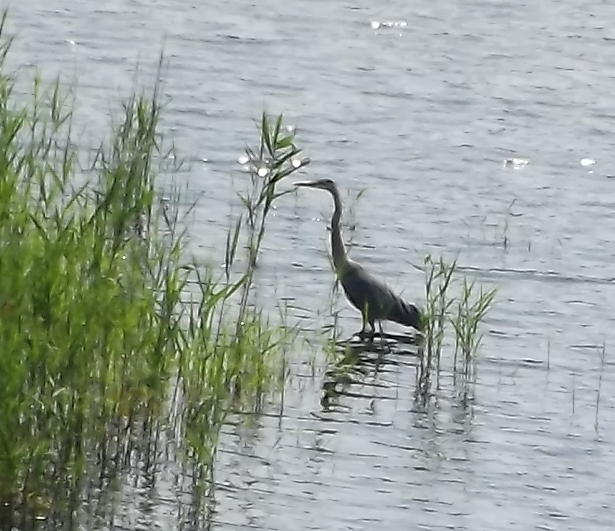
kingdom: Animalia
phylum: Chordata
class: Aves
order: Pelecaniformes
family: Ardeidae
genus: Ardea
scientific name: Ardea herodias
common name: Great blue heron
